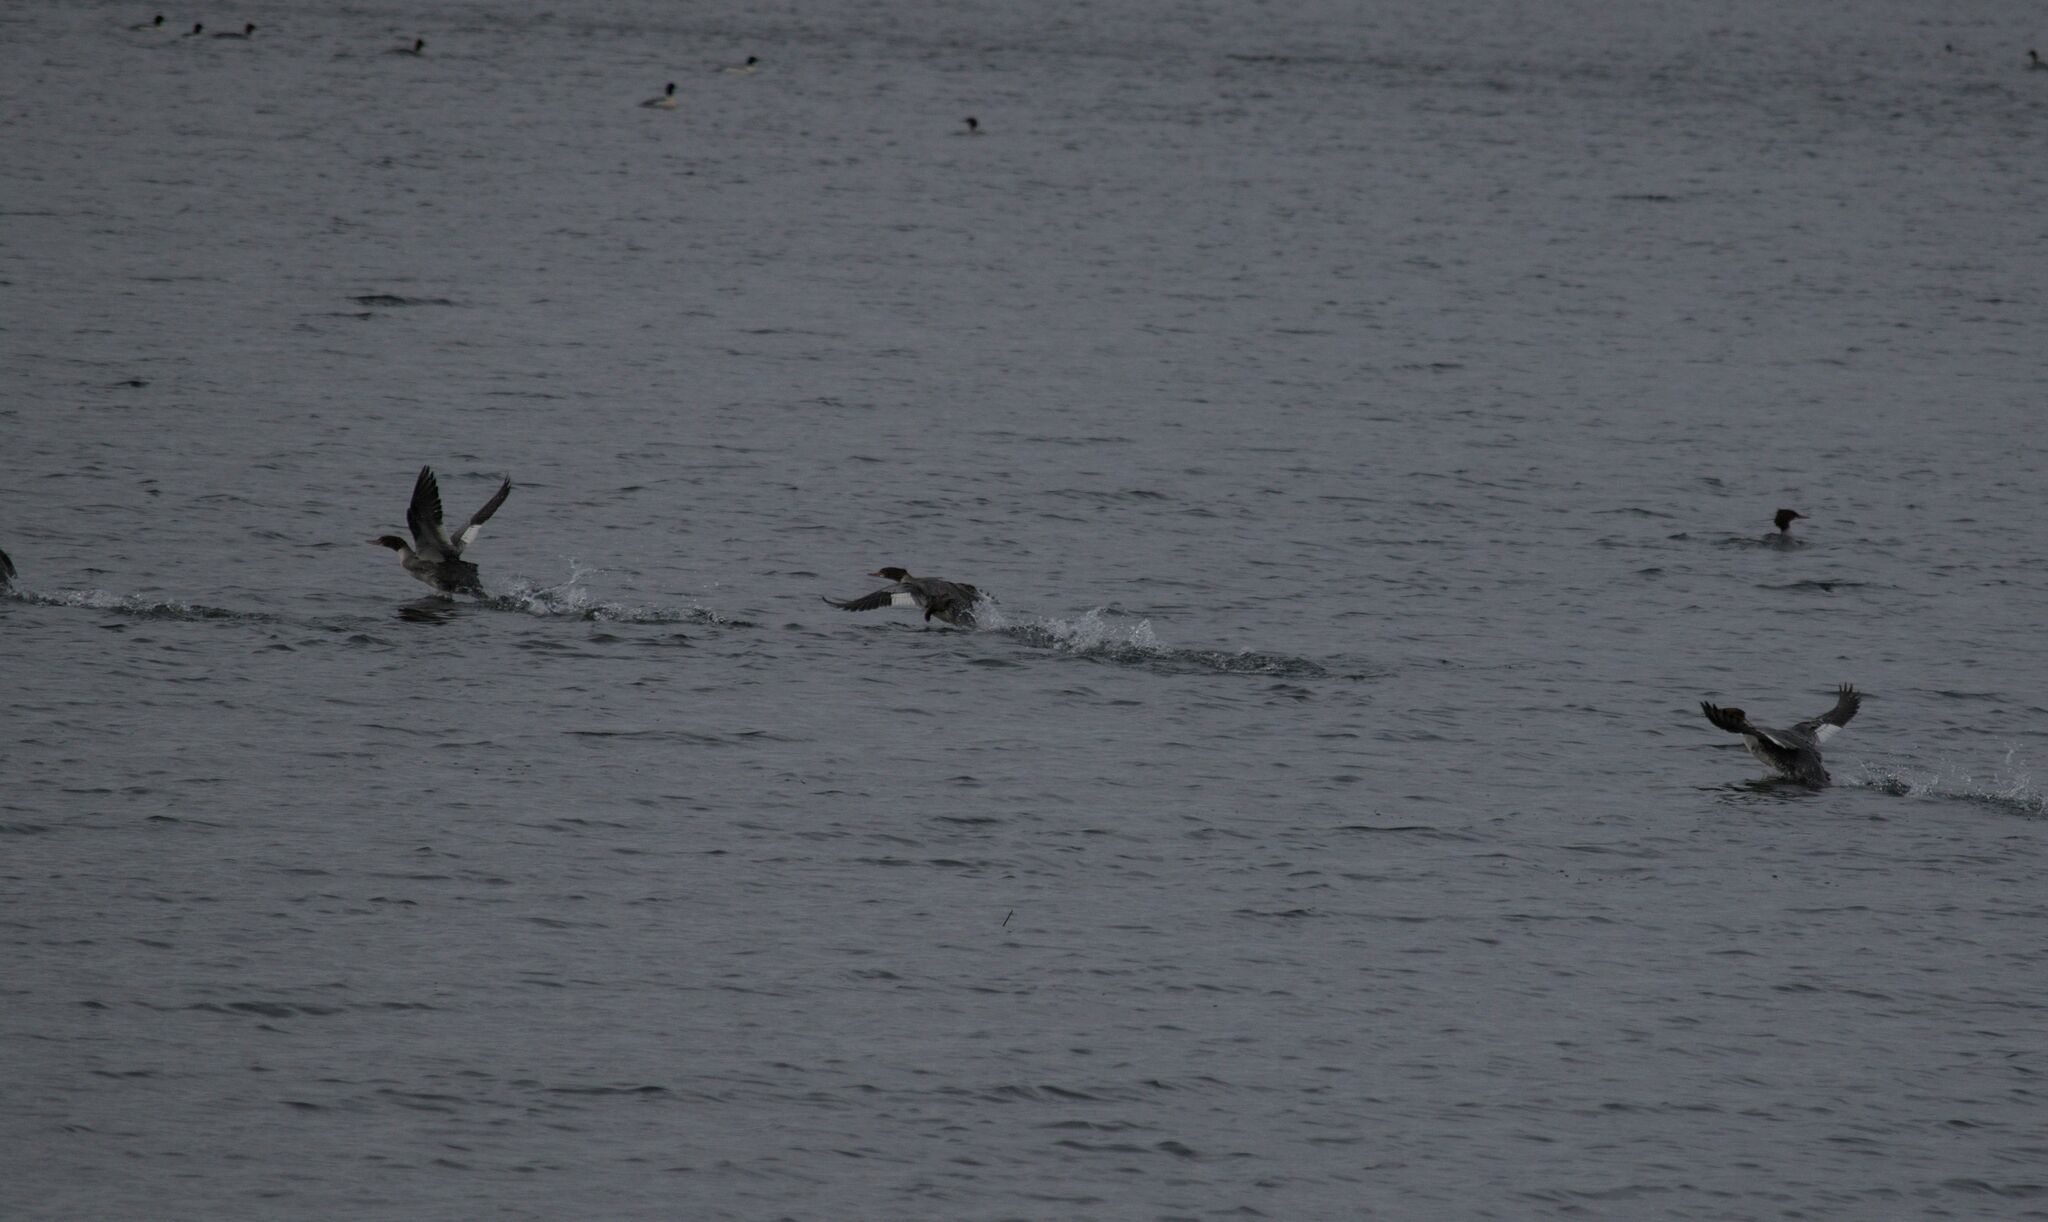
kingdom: Animalia
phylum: Chordata
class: Aves
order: Anseriformes
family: Anatidae
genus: Mergus
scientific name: Mergus merganser
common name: Common merganser
